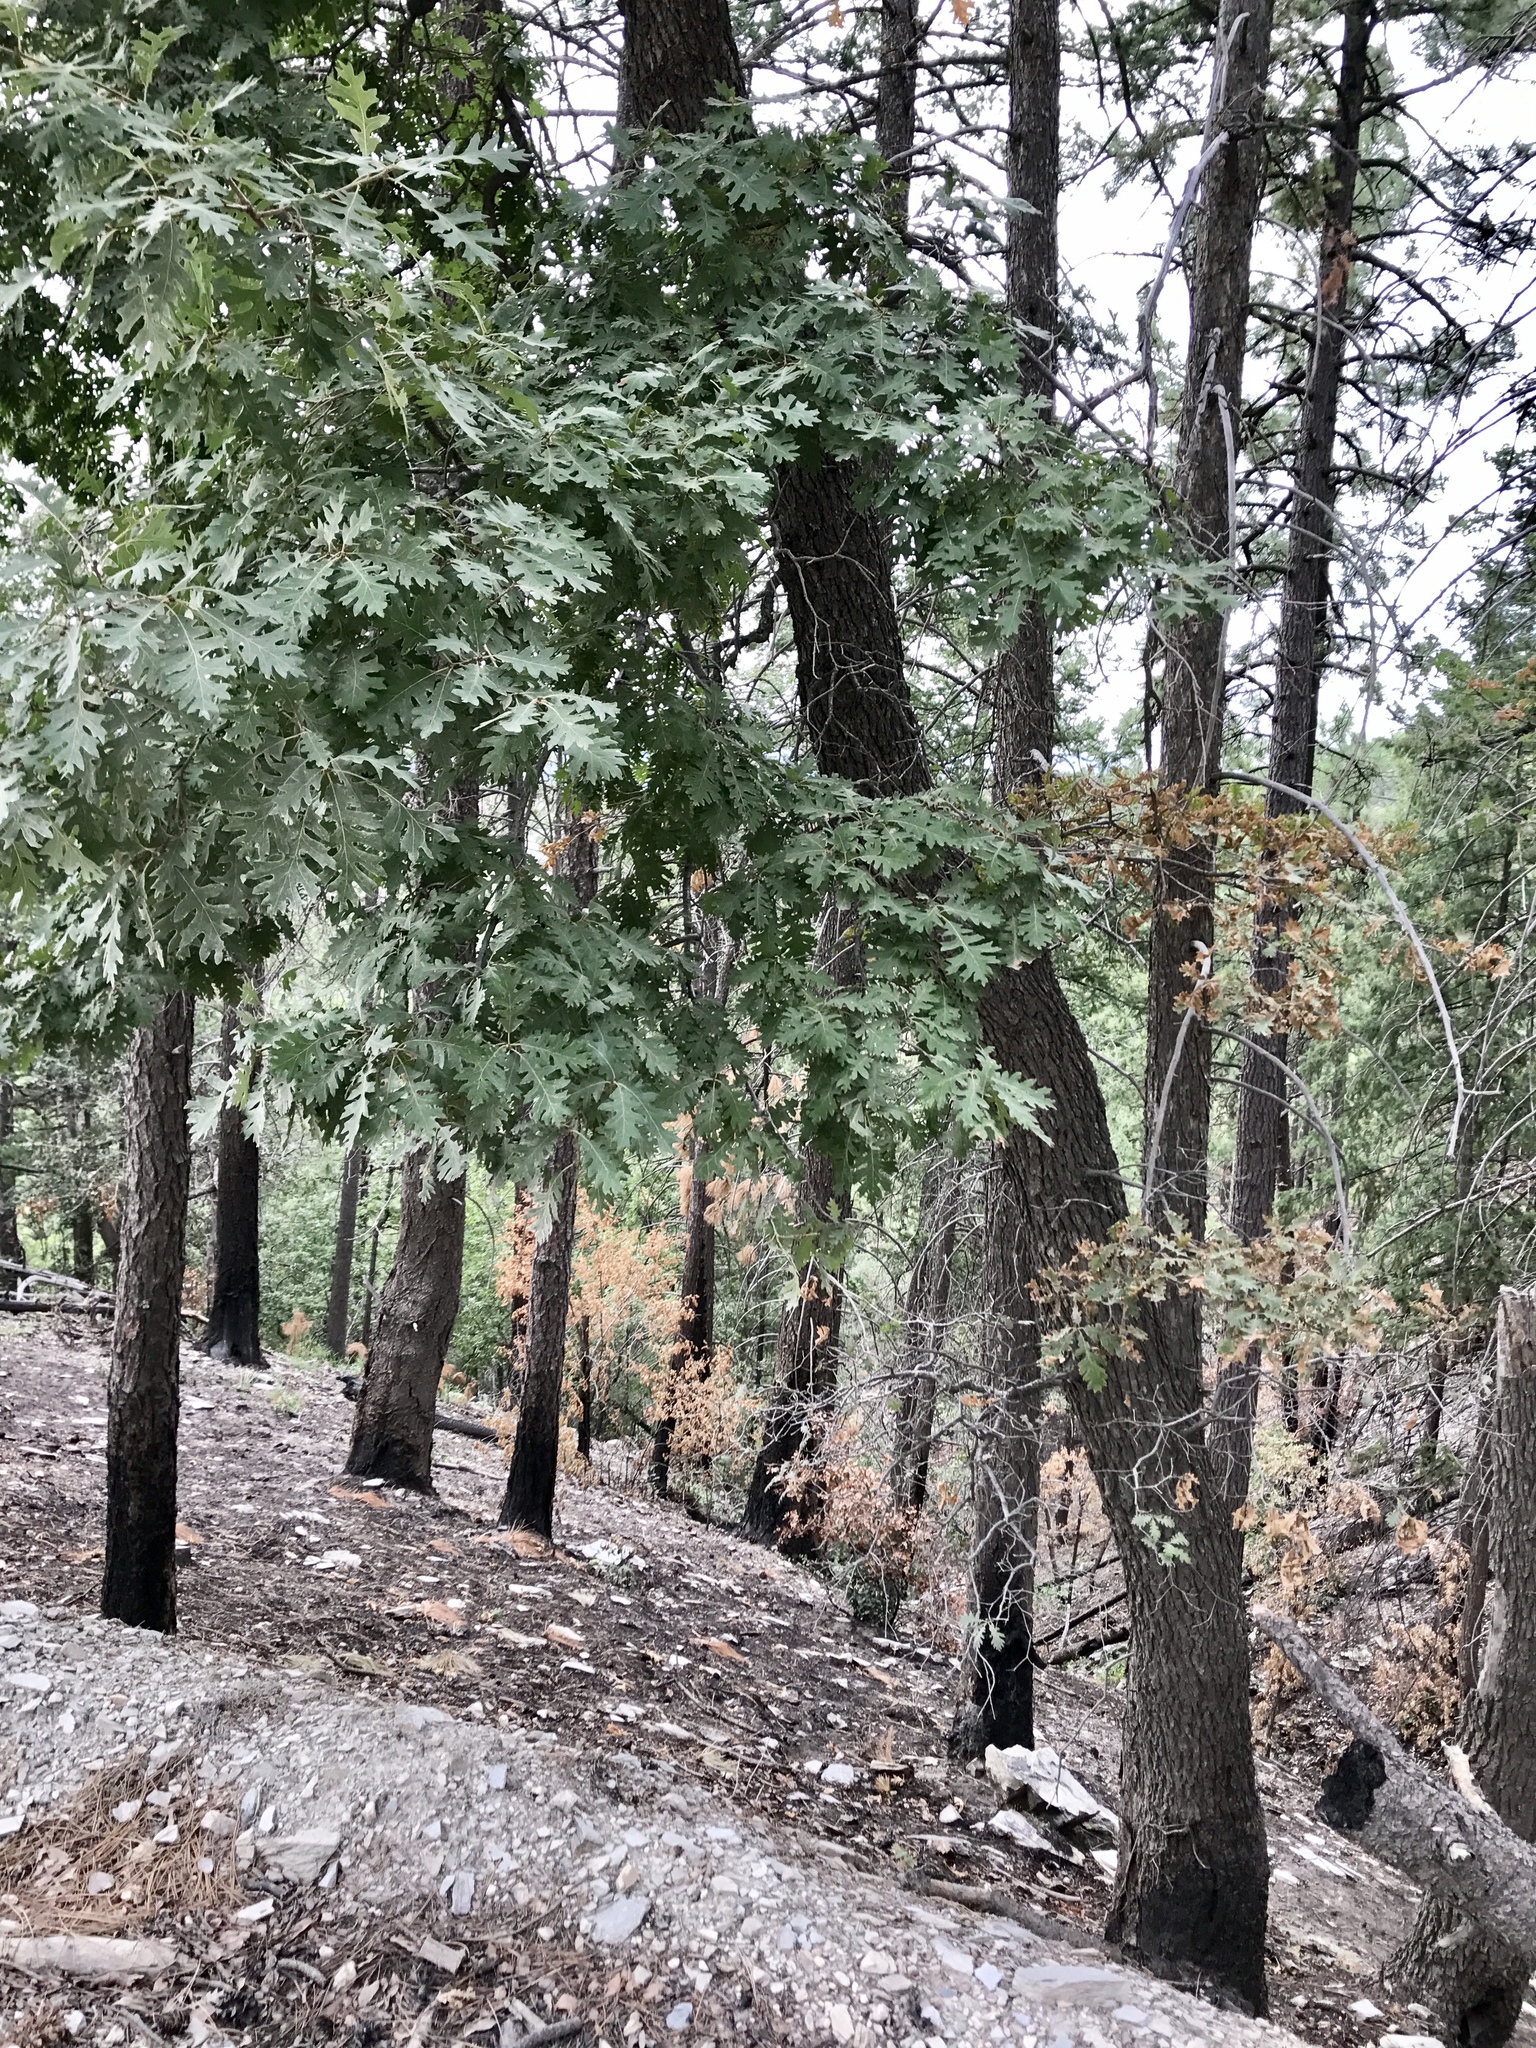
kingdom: Plantae
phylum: Tracheophyta
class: Magnoliopsida
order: Fagales
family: Fagaceae
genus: Quercus
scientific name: Quercus gambelii
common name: Gambel oak
